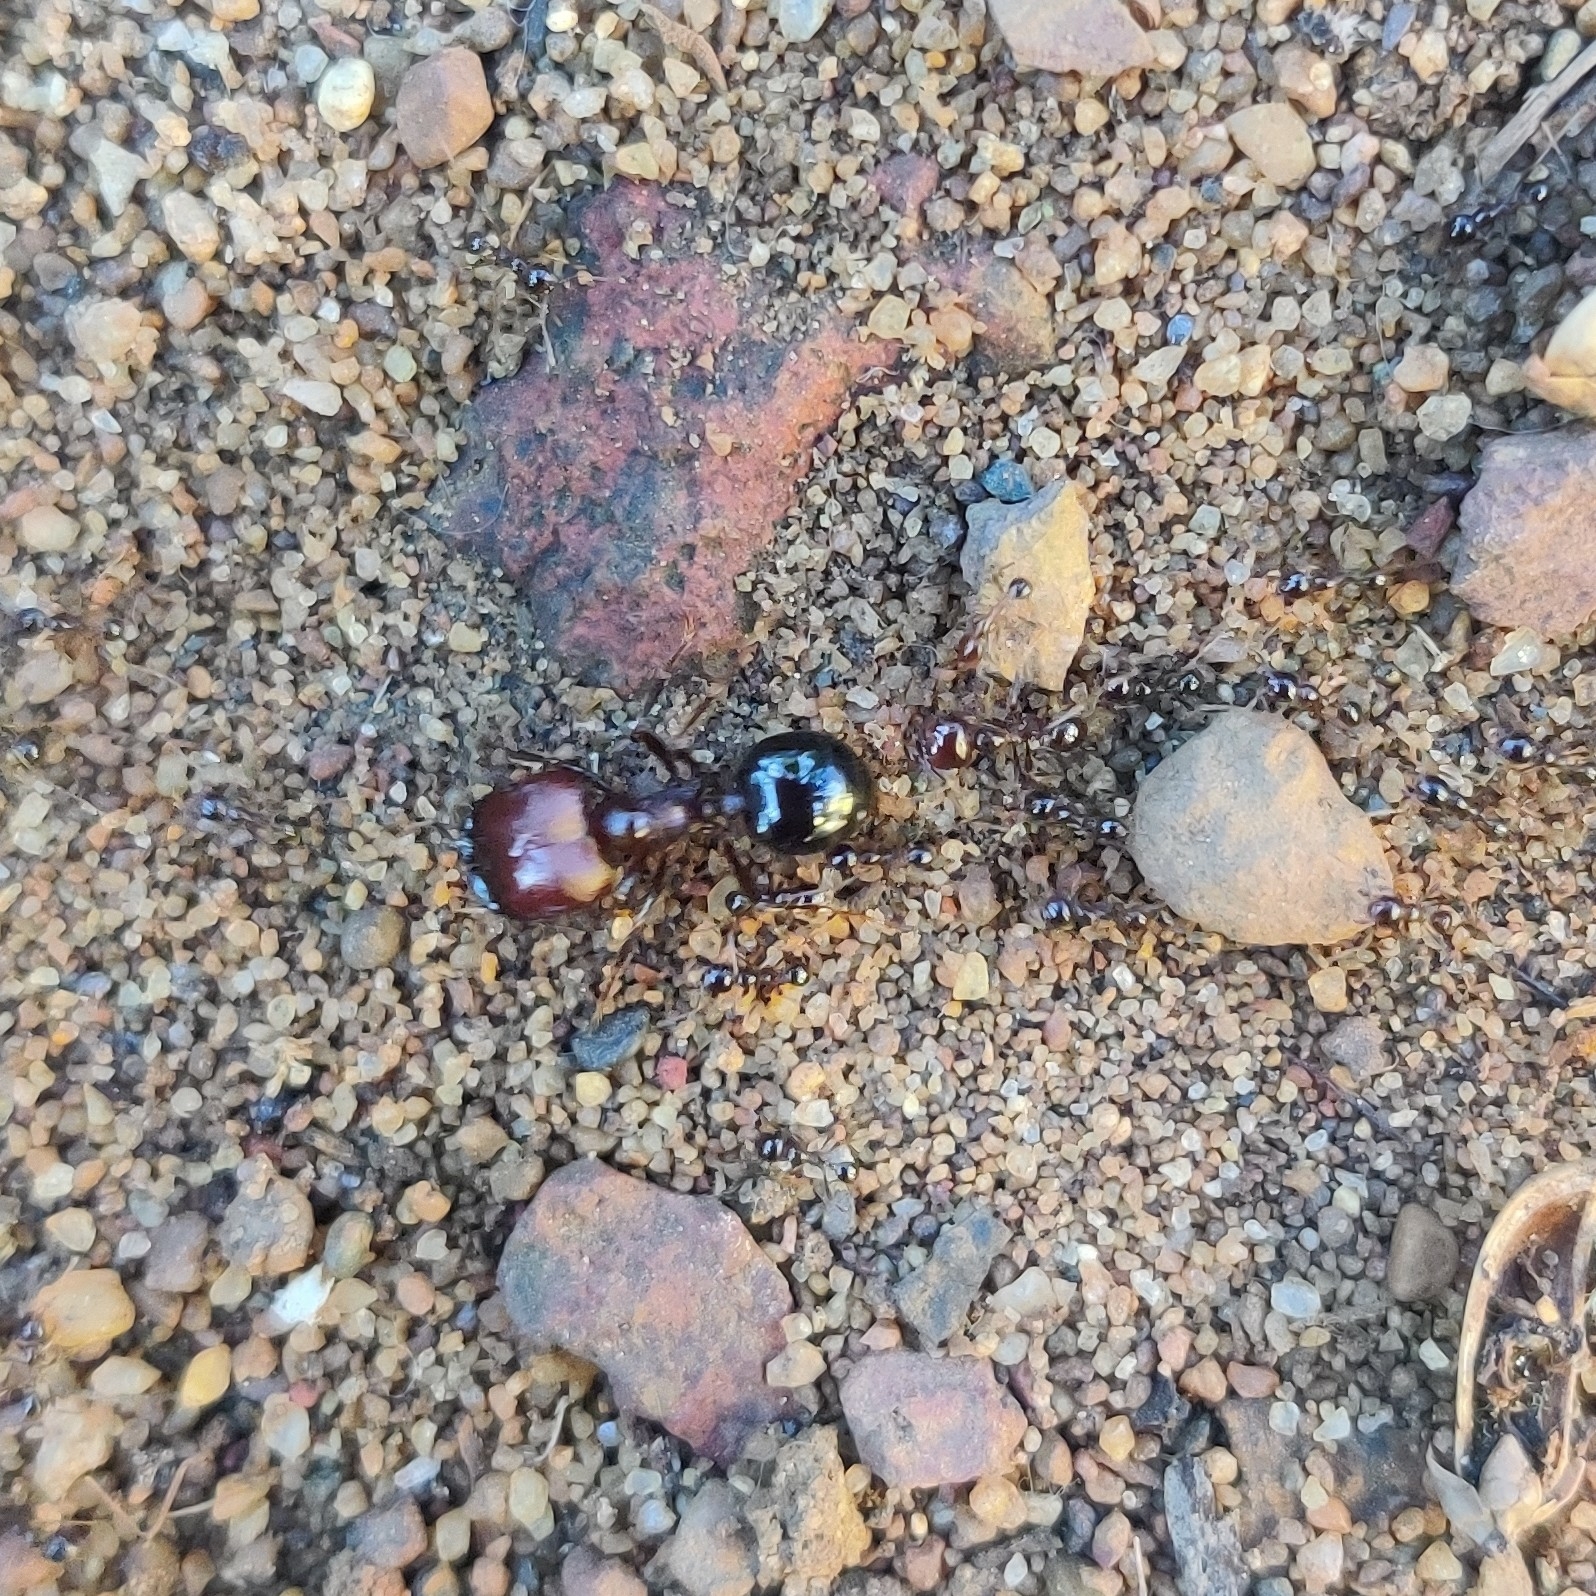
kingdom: Animalia
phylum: Arthropoda
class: Insecta
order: Hymenoptera
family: Formicidae
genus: Carebara
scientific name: Carebara affinis
